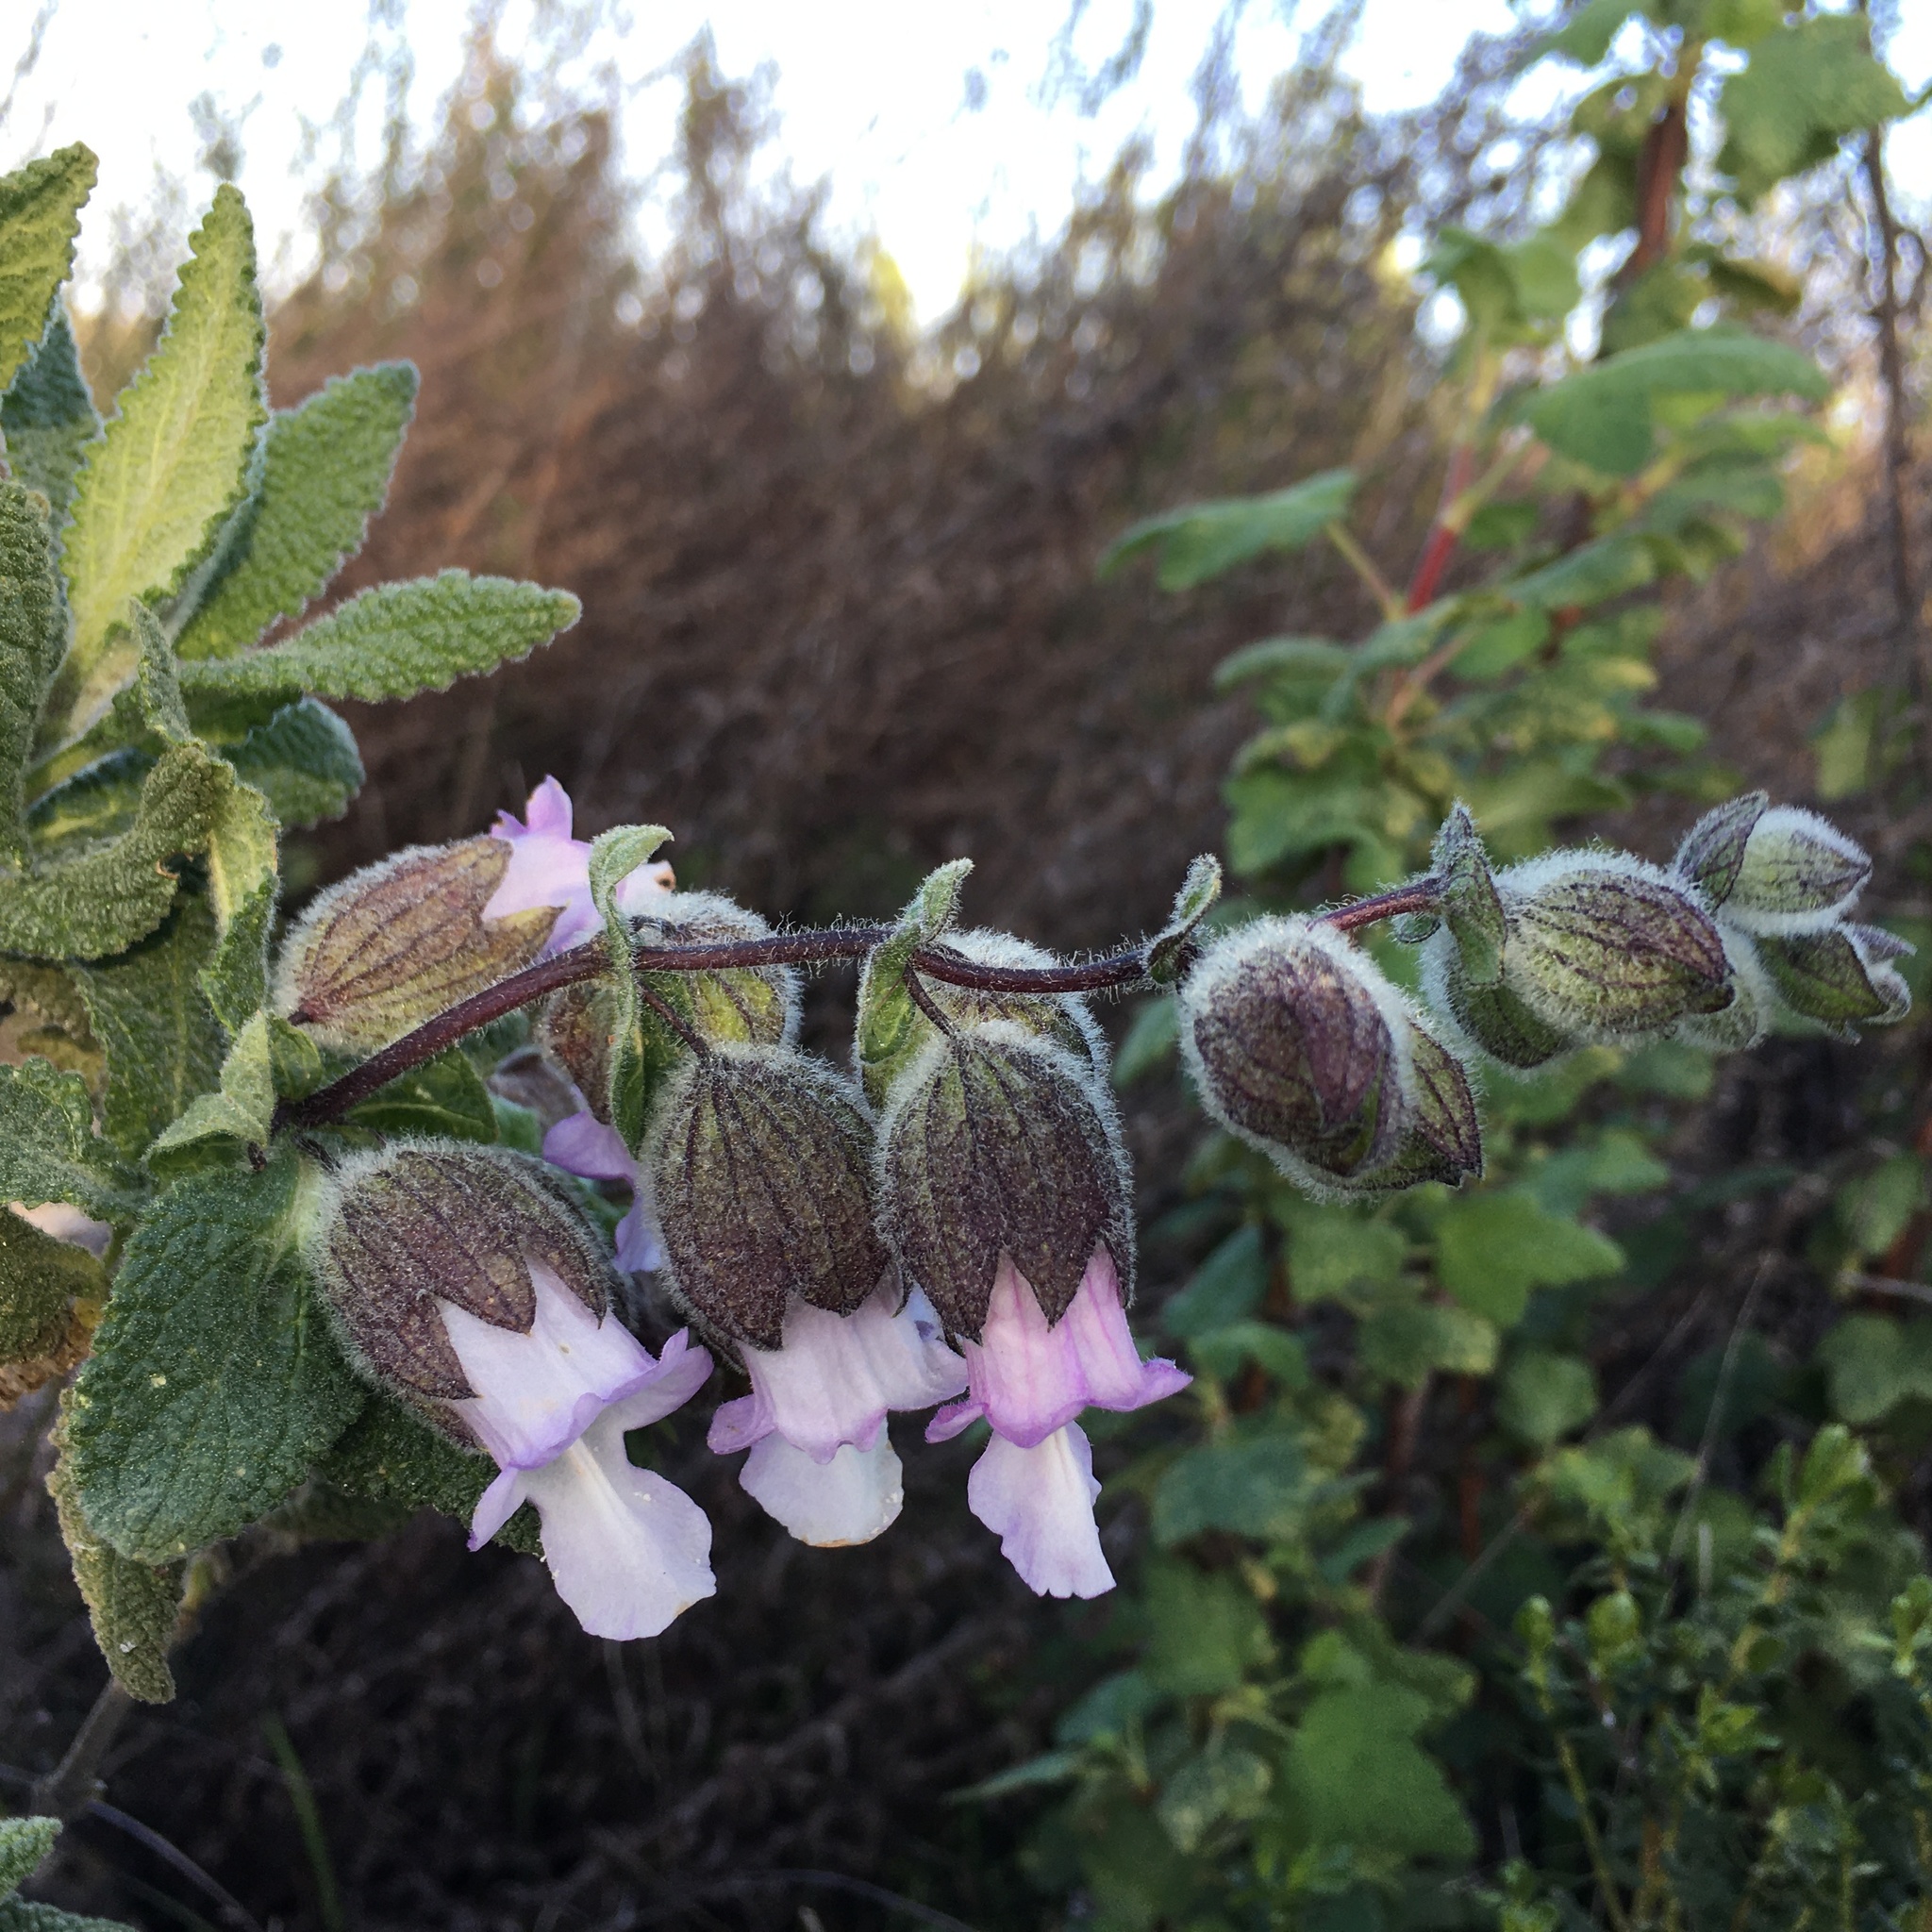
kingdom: Plantae
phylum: Tracheophyta
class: Magnoliopsida
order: Lamiales
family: Lamiaceae
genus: Lepechinia
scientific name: Lepechinia calycina
